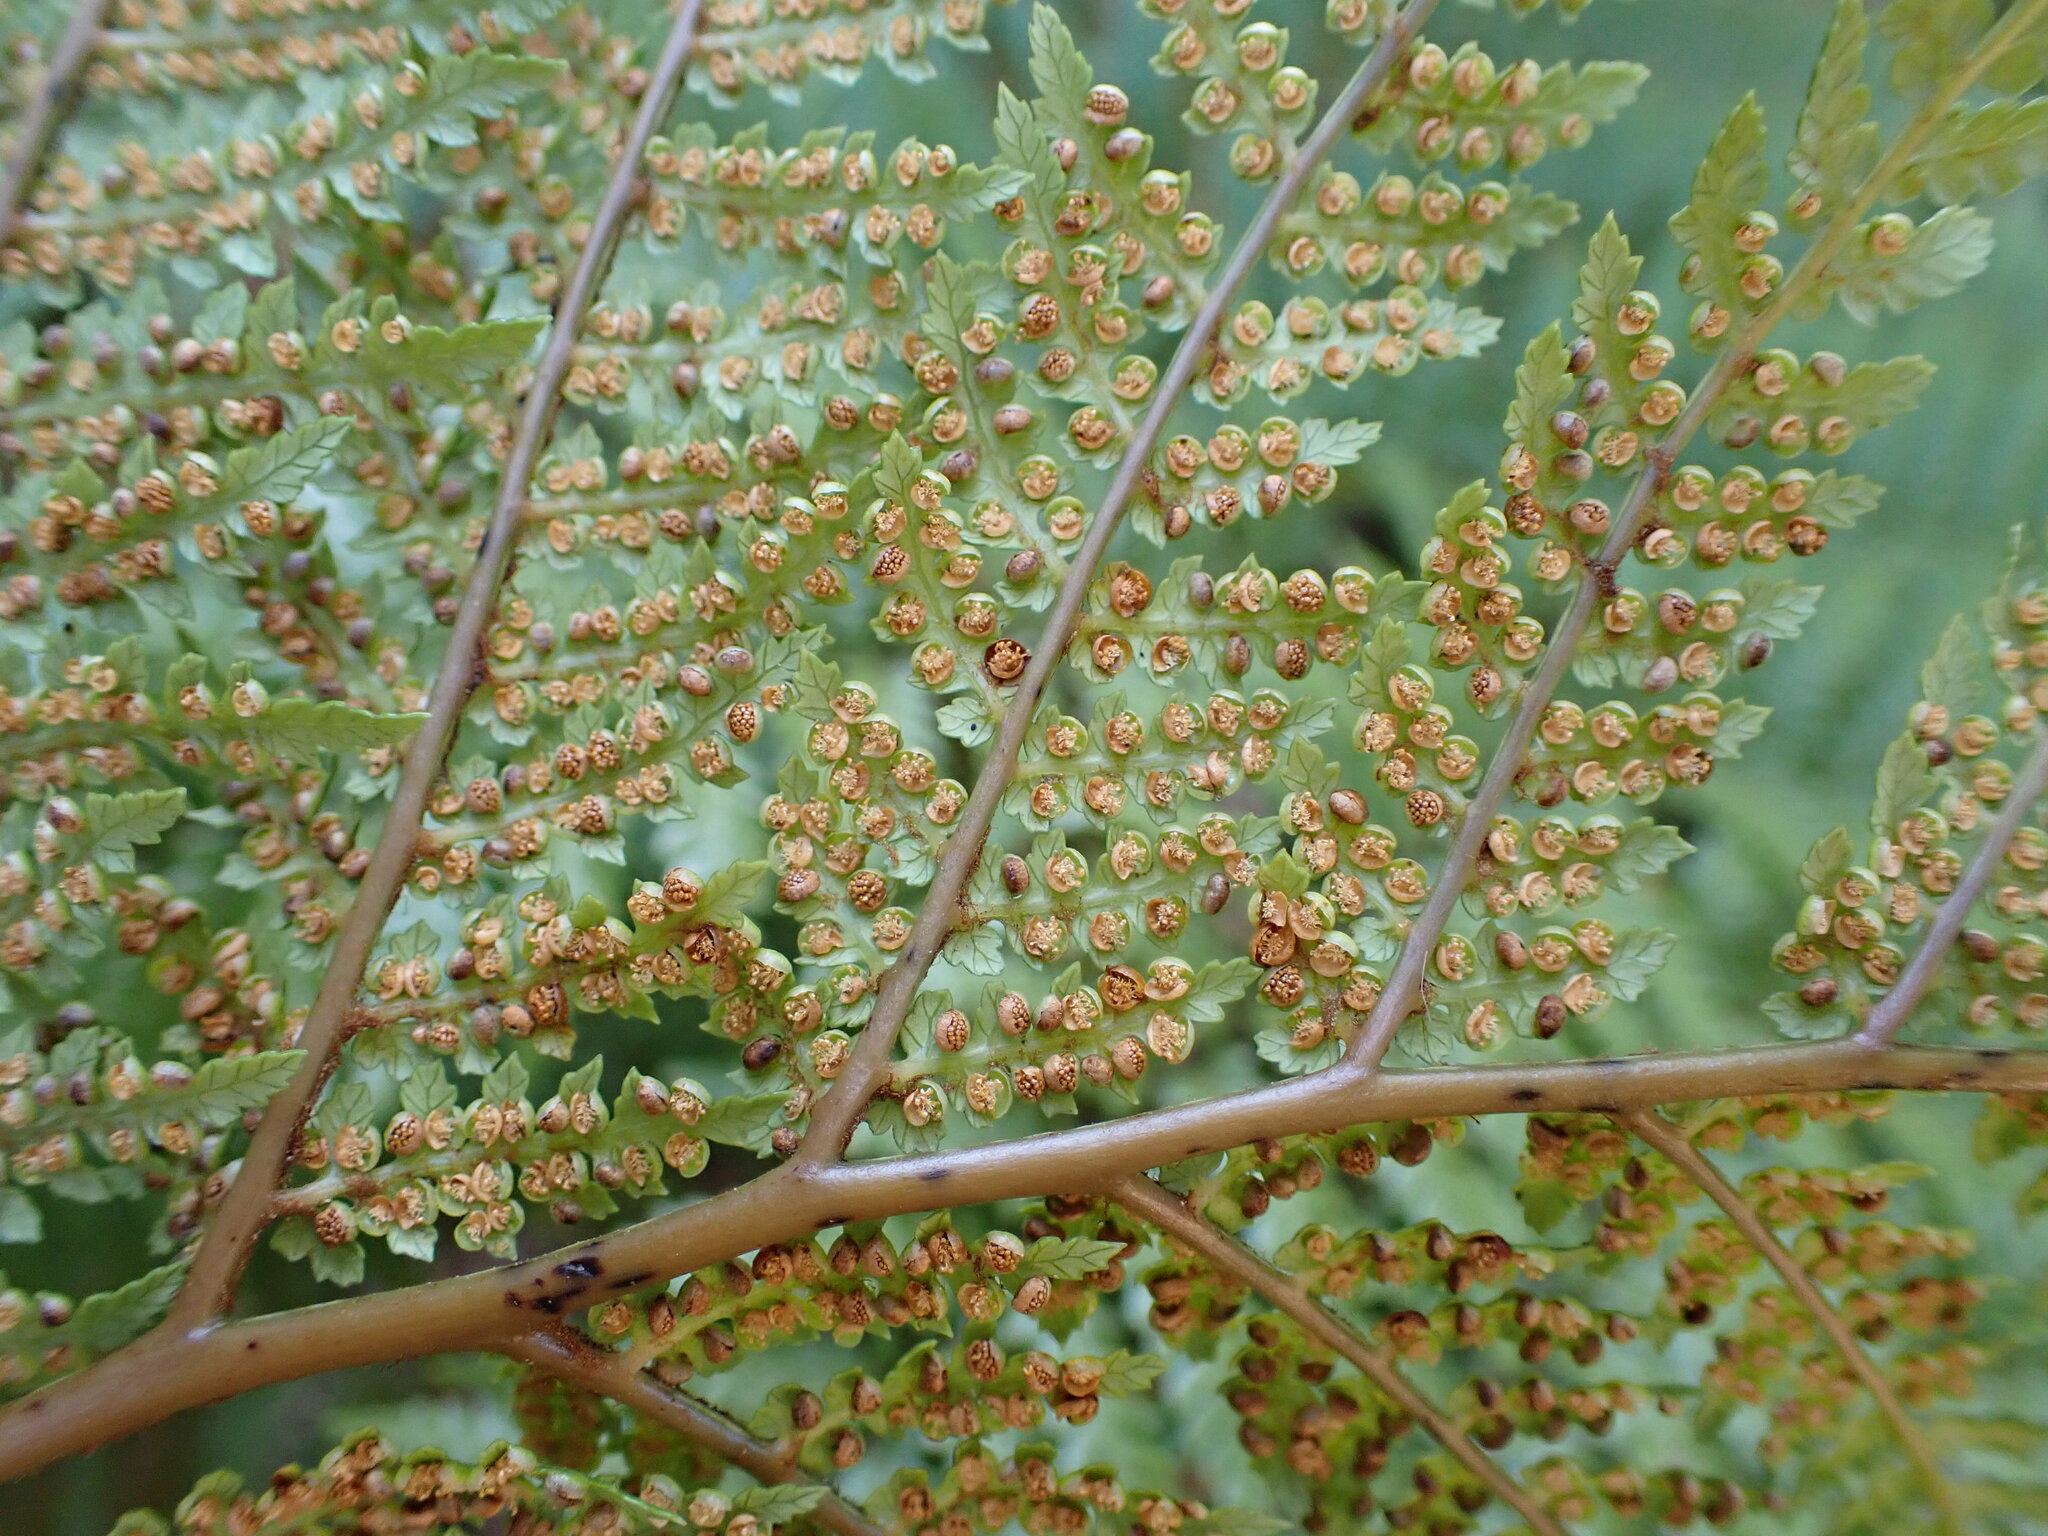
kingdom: Plantae
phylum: Tracheophyta
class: Polypodiopsida
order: Cyatheales
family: Dicksoniaceae
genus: Dicksonia
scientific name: Dicksonia lanata
